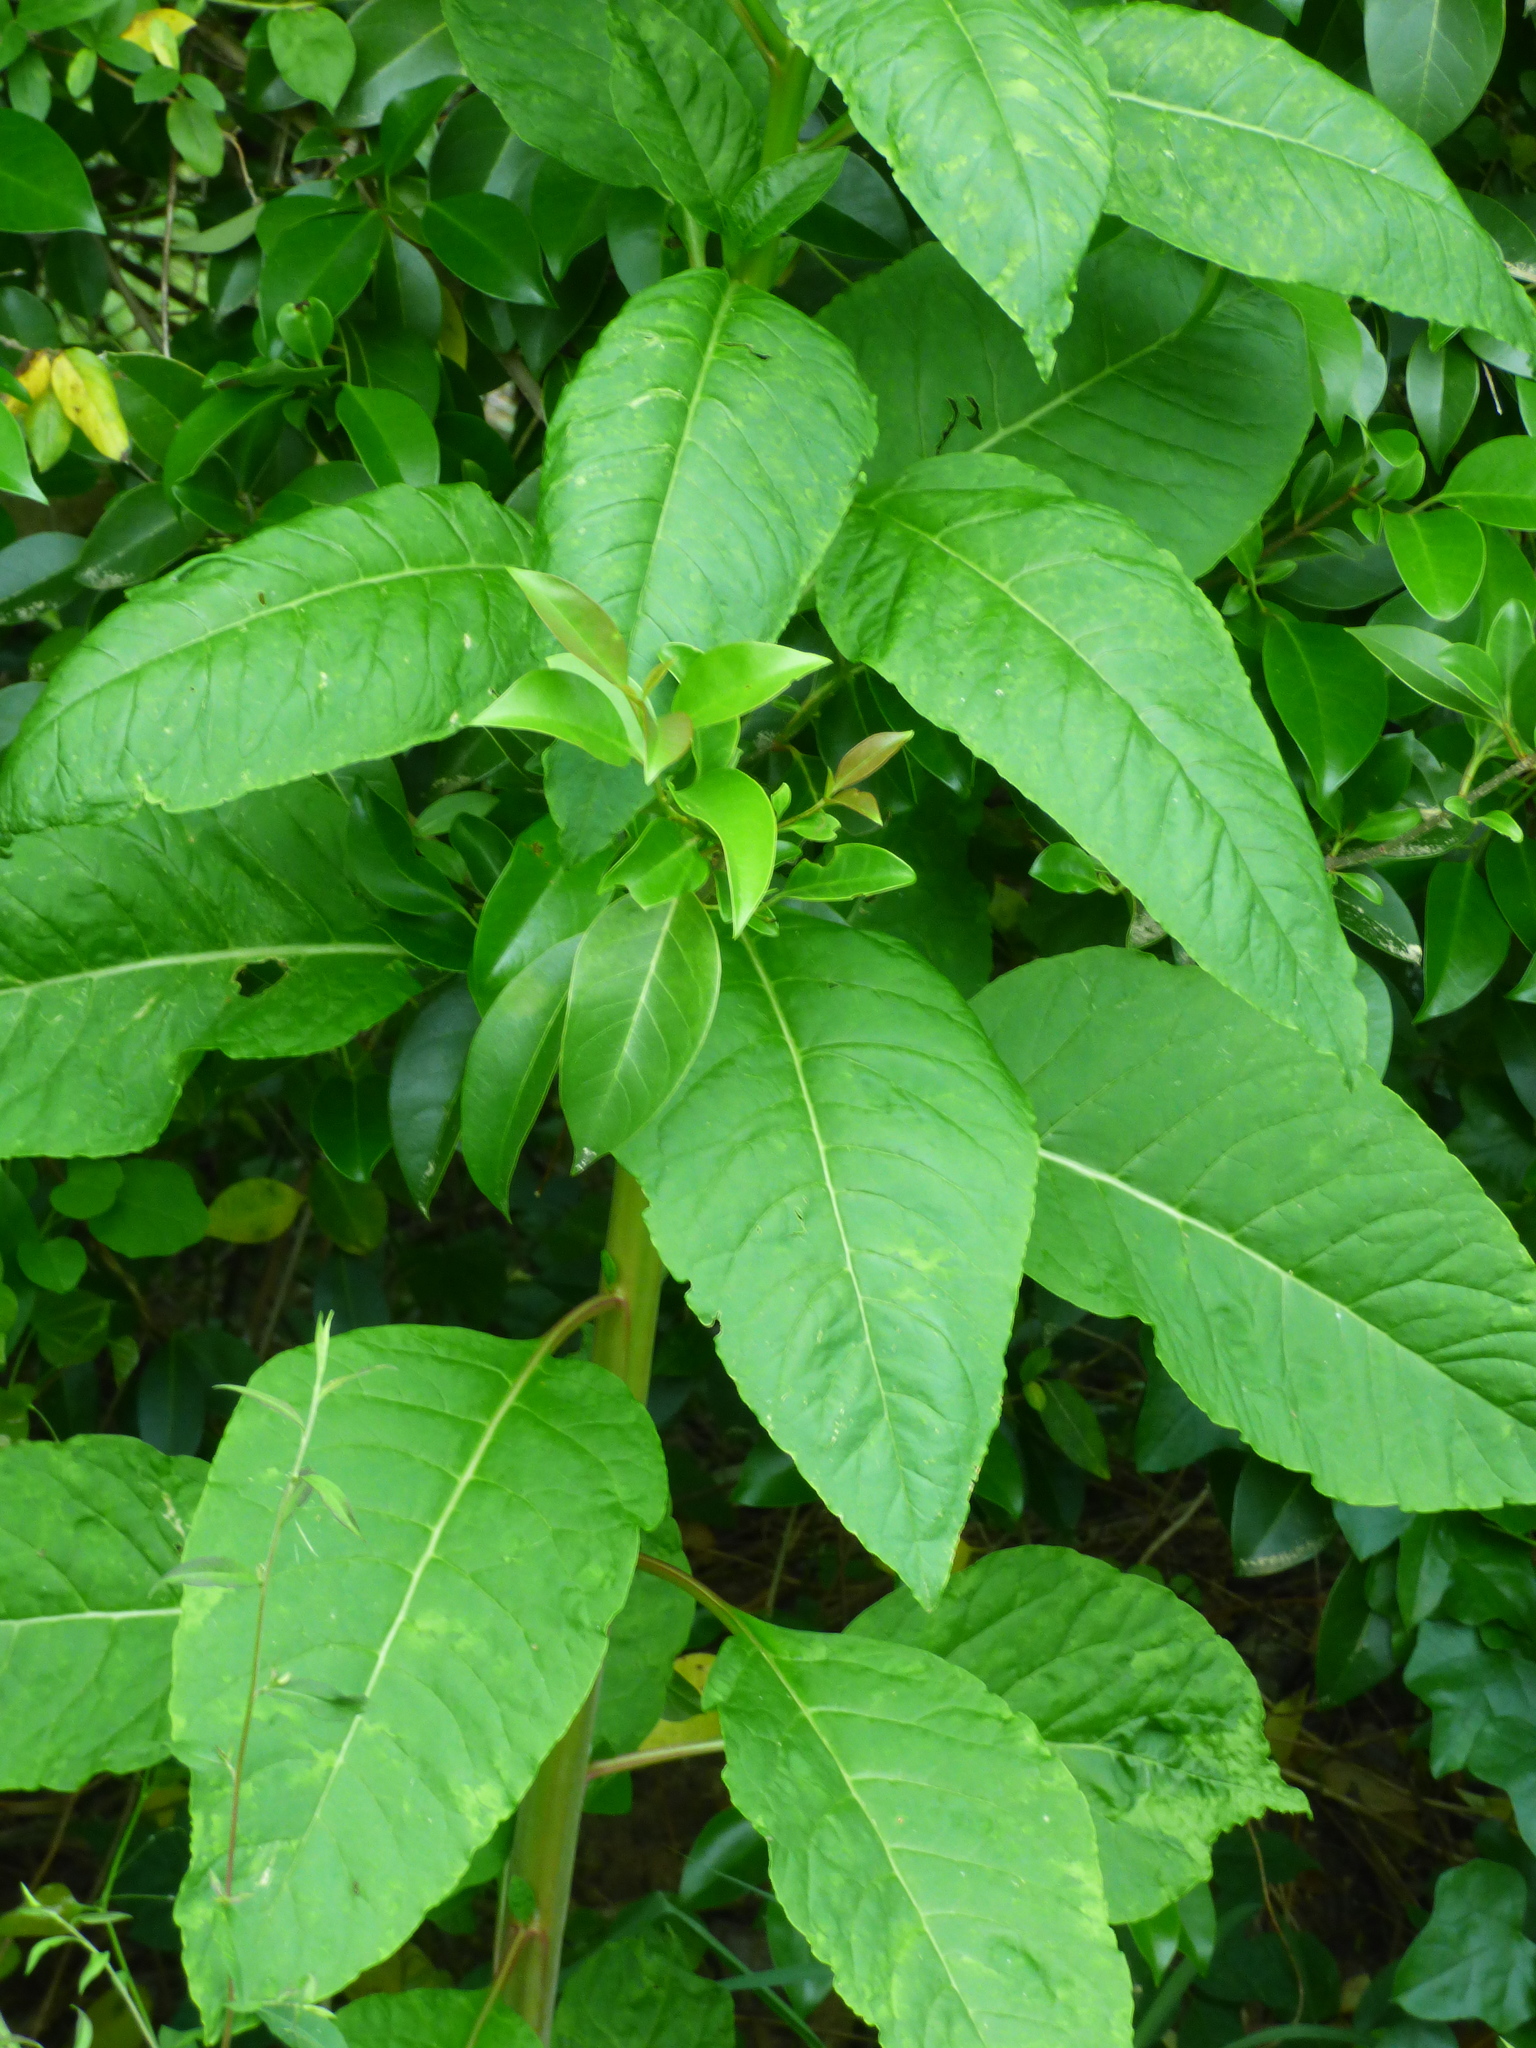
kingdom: Plantae
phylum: Tracheophyta
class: Magnoliopsida
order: Caryophyllales
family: Phytolaccaceae
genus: Phytolacca
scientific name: Phytolacca americana
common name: American pokeweed
